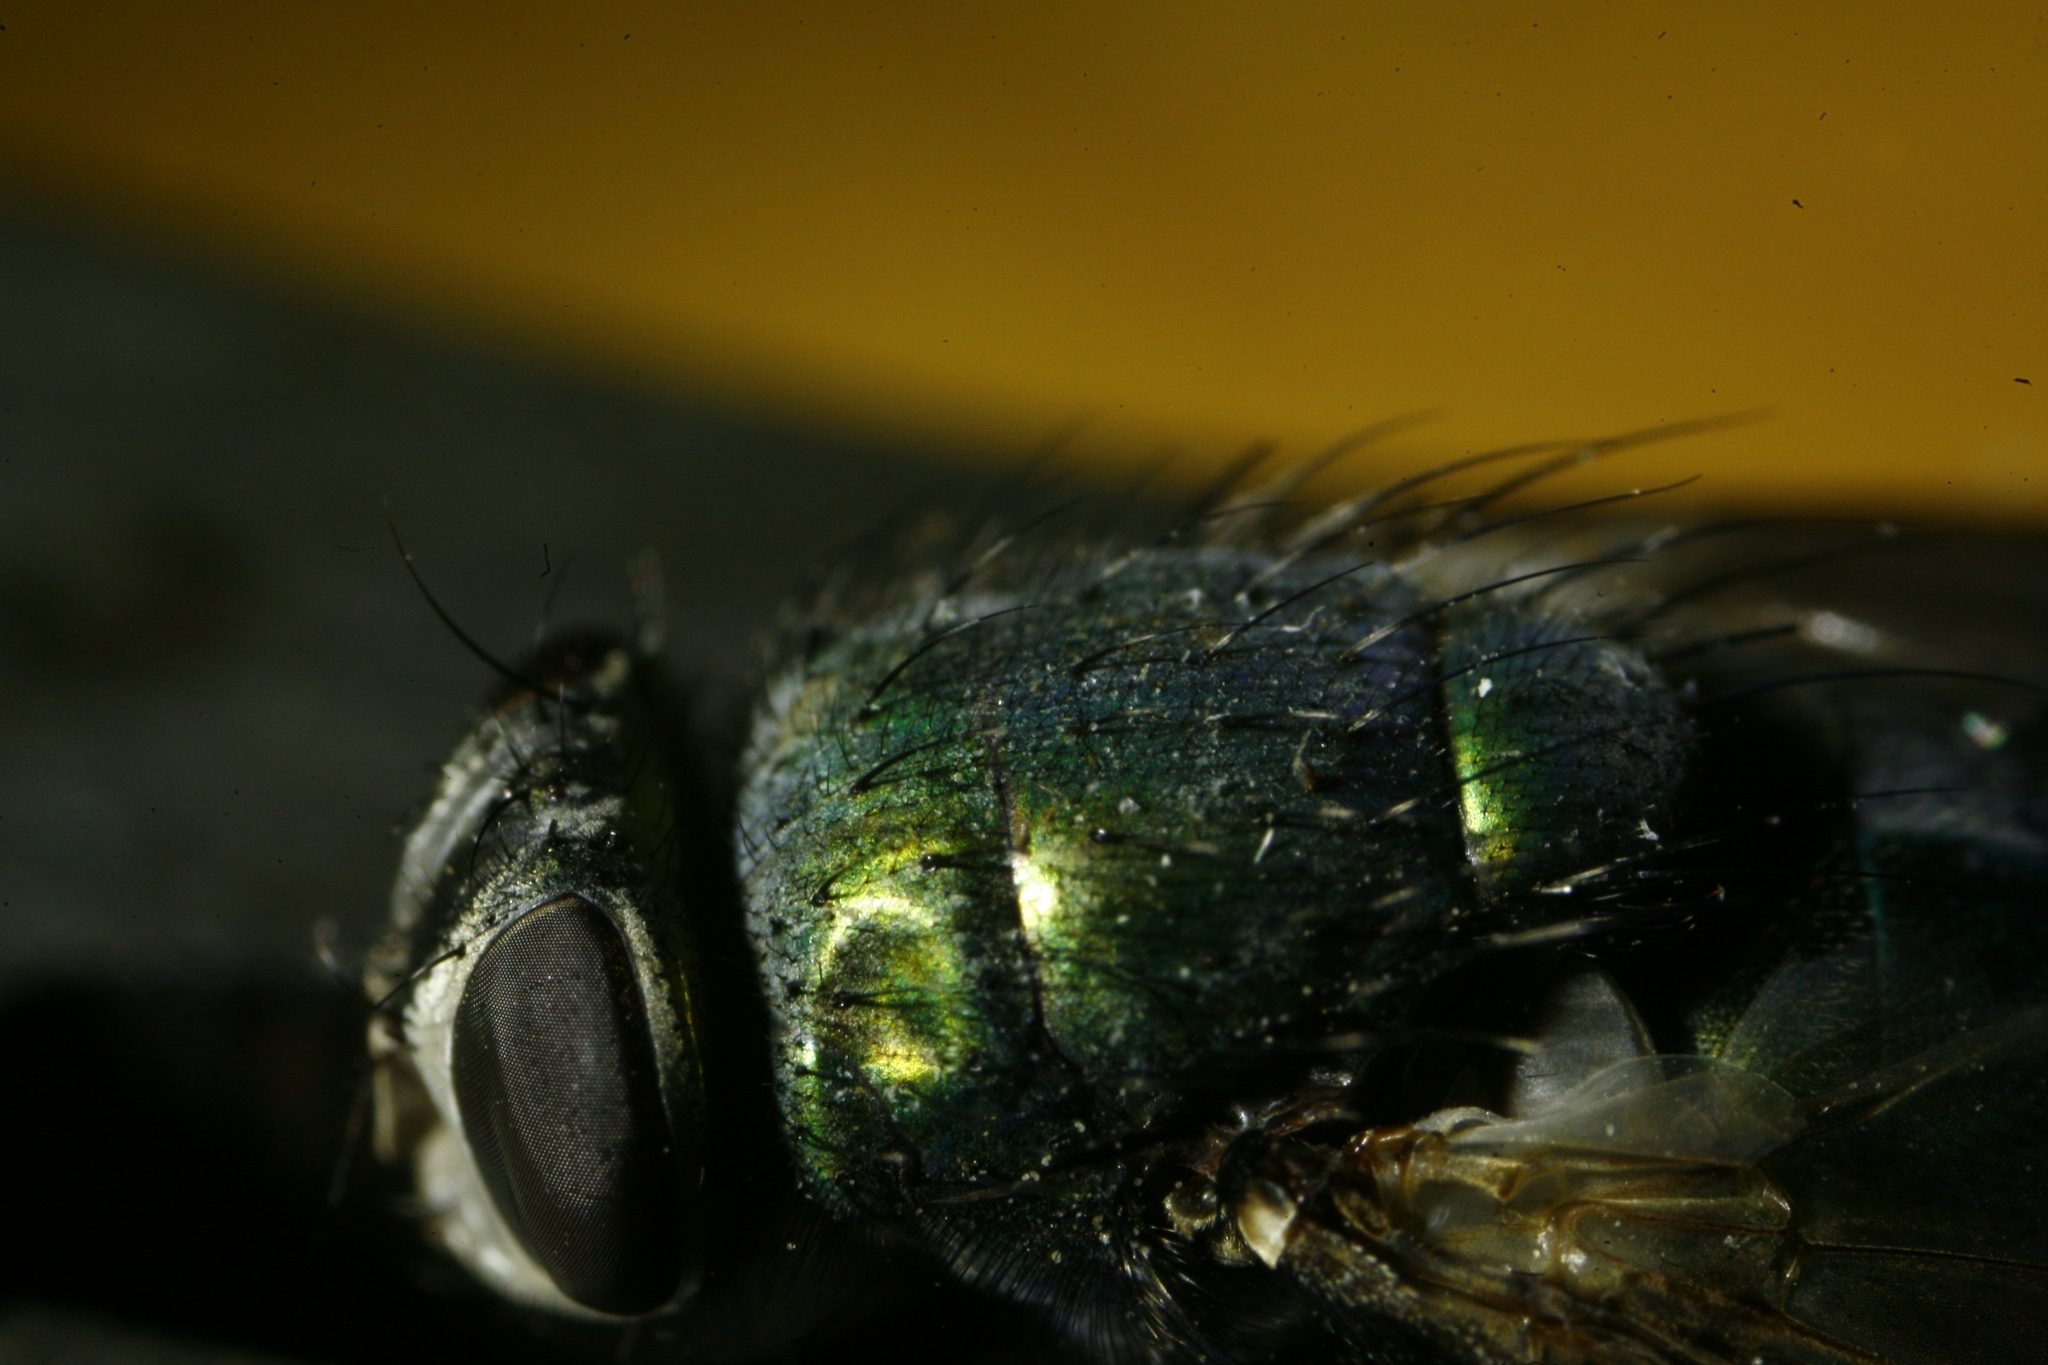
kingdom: Animalia
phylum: Arthropoda
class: Insecta
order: Diptera
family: Calliphoridae
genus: Lucilia
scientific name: Lucilia sericata
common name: Blow fly
